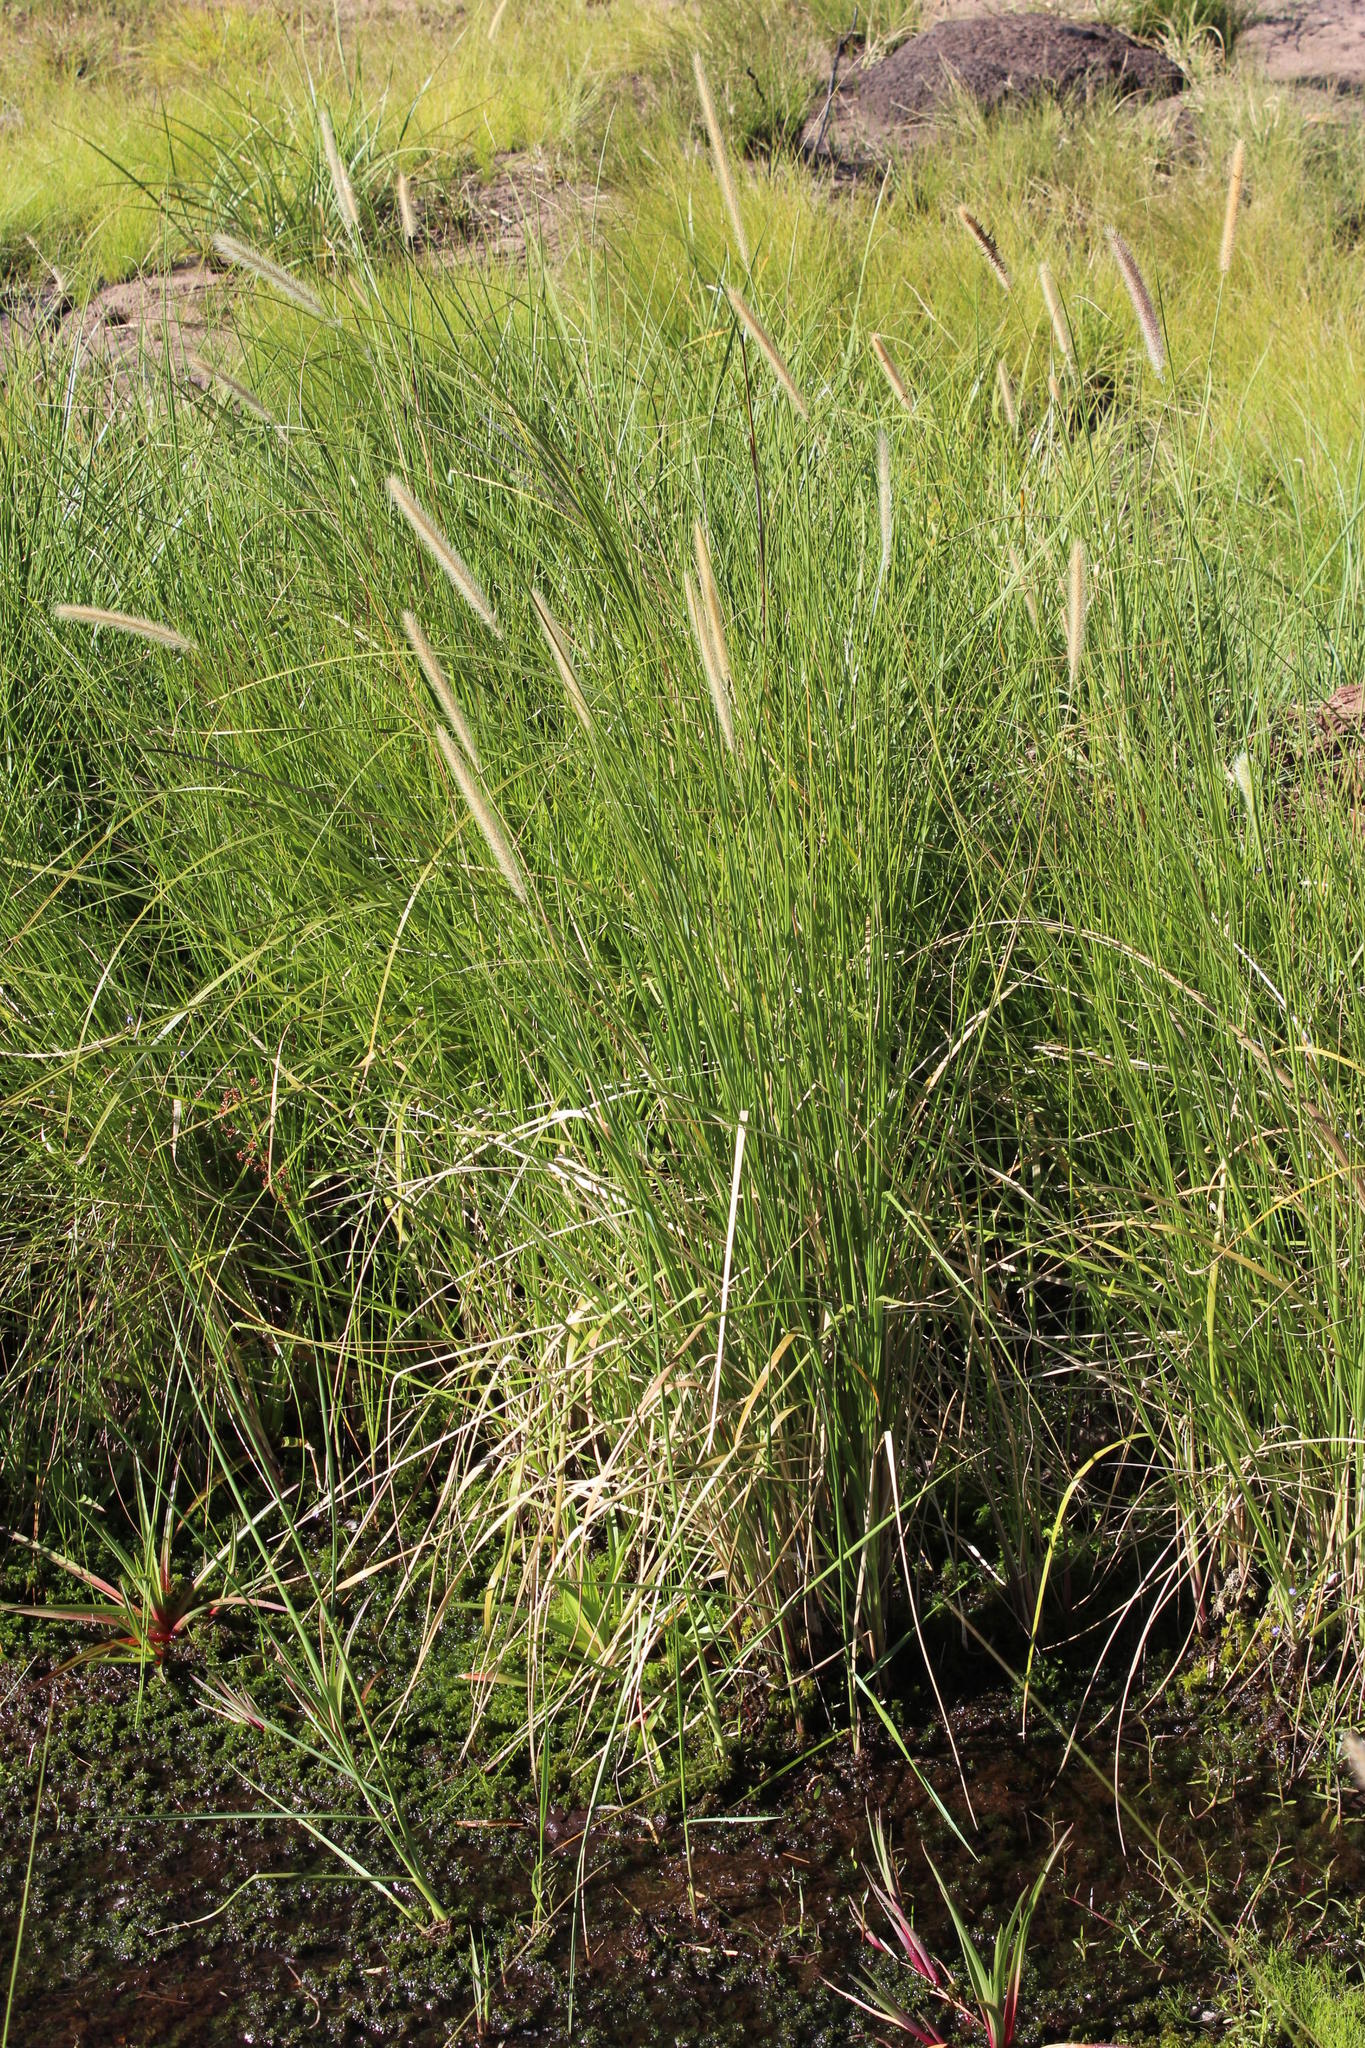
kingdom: Plantae
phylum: Tracheophyta
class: Liliopsida
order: Poales
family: Poaceae
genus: Cenchrus
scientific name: Cenchrus caudatus
